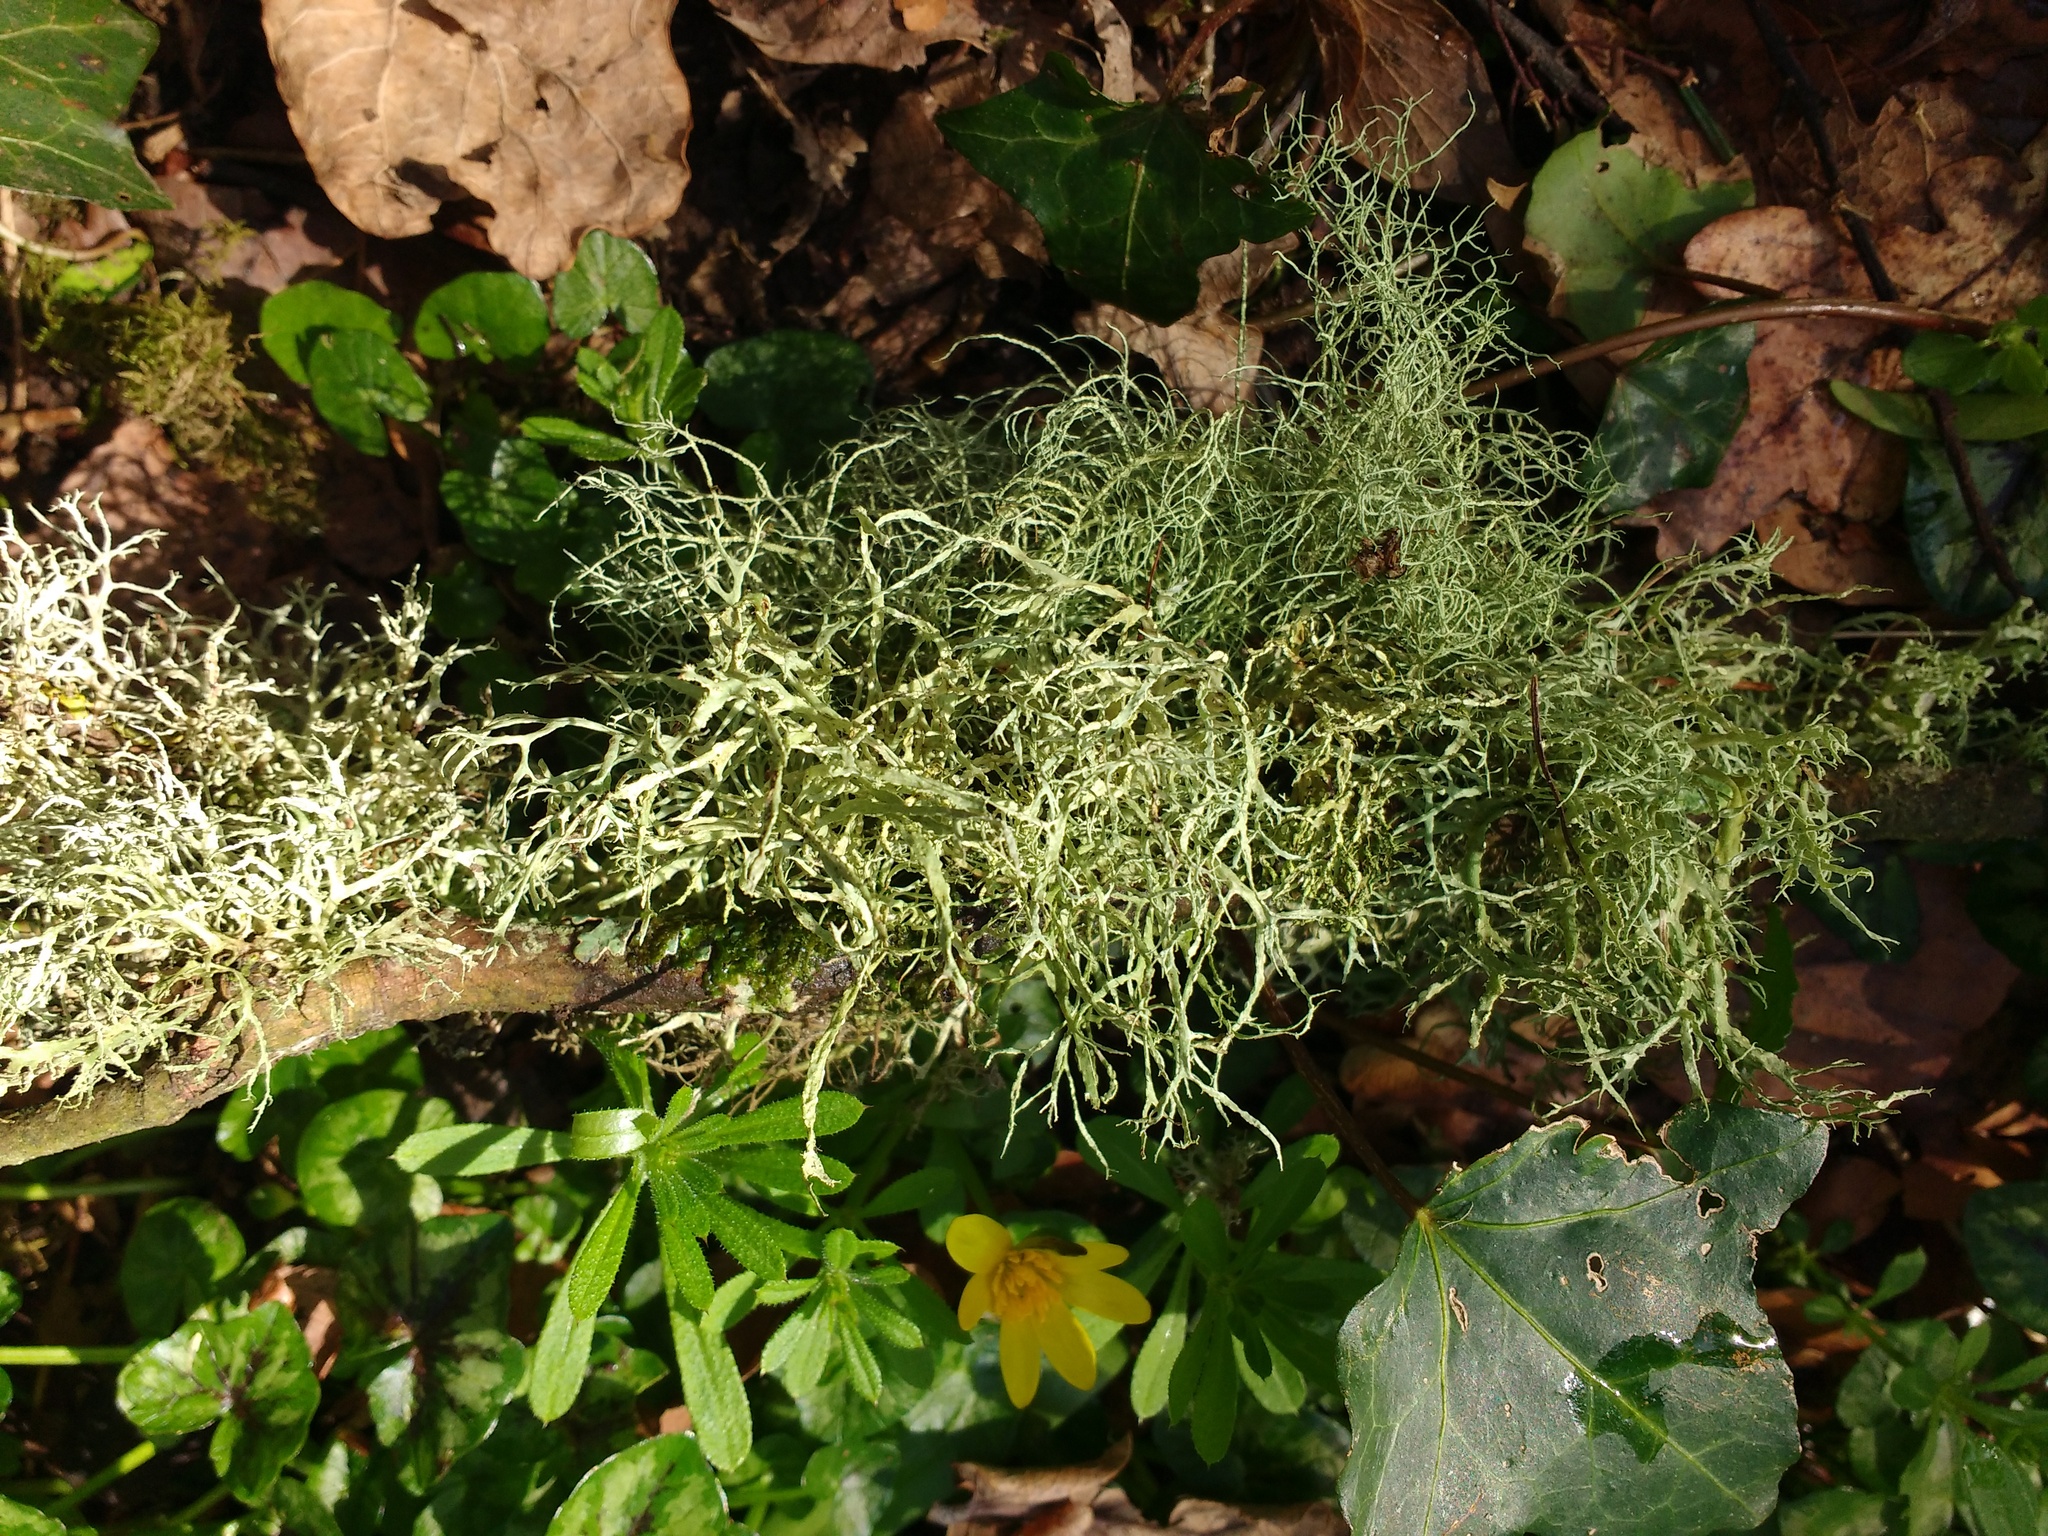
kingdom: Fungi
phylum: Ascomycota
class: Lecanoromycetes
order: Lecanorales
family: Ramalinaceae
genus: Ramalina
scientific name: Ramalina farinacea
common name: Farinose cartilage lichen
